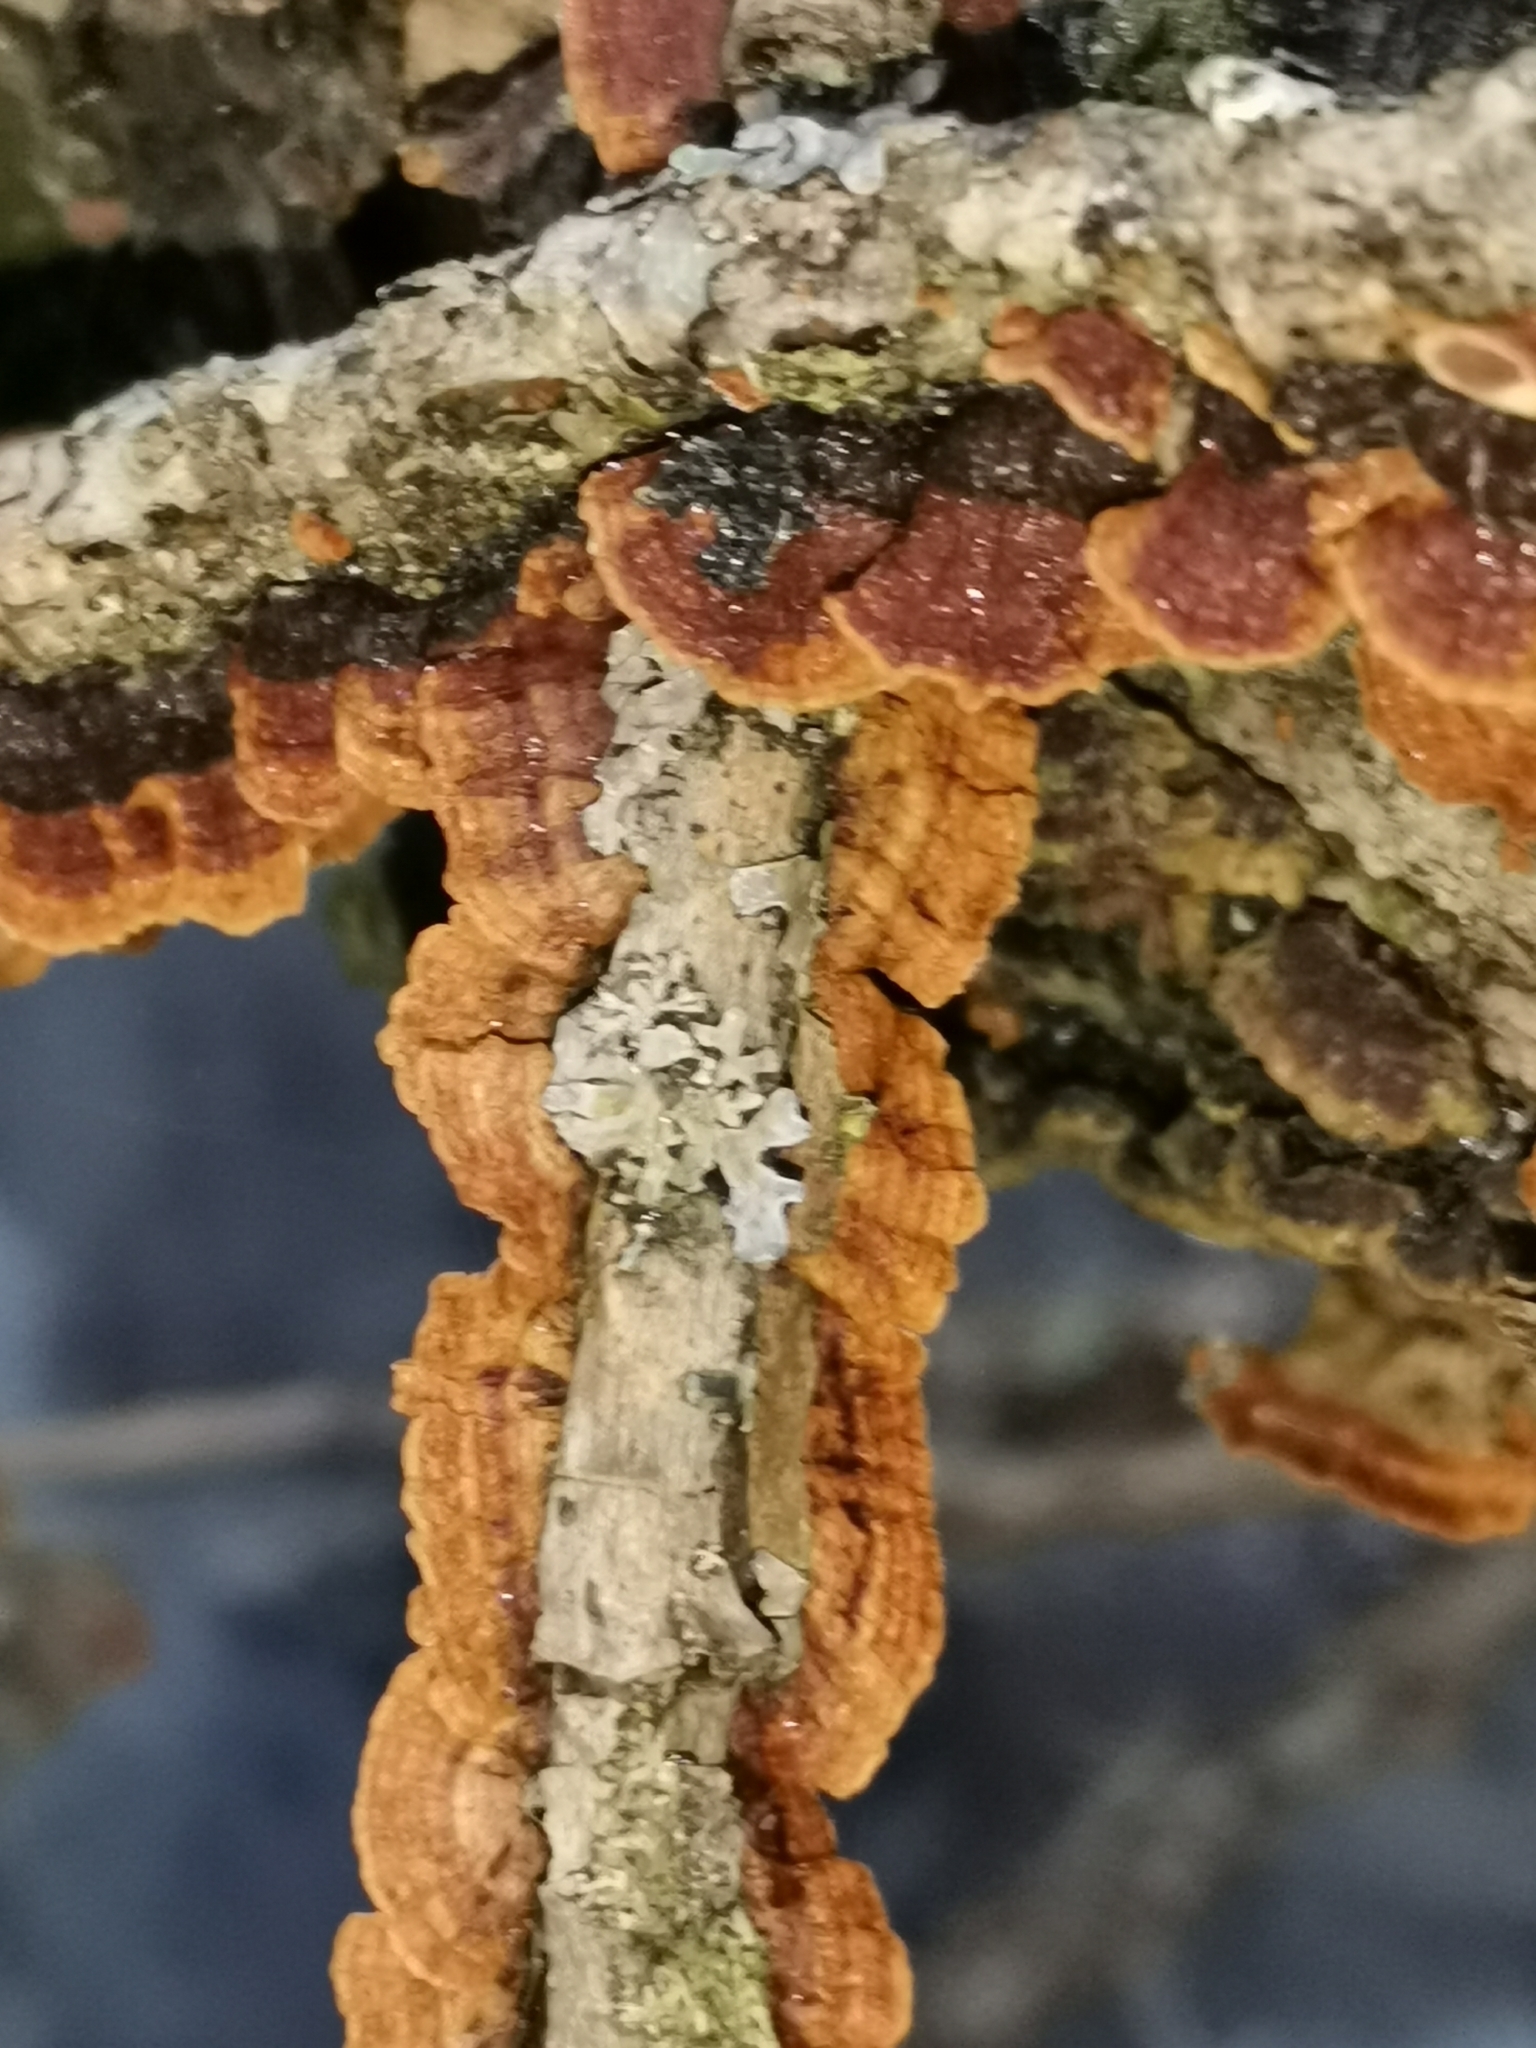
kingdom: Fungi
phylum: Basidiomycota
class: Agaricomycetes
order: Hymenochaetales
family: Hymenochaetaceae
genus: Hydnoporia
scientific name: Hydnoporia tabacina
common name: Willow glue
